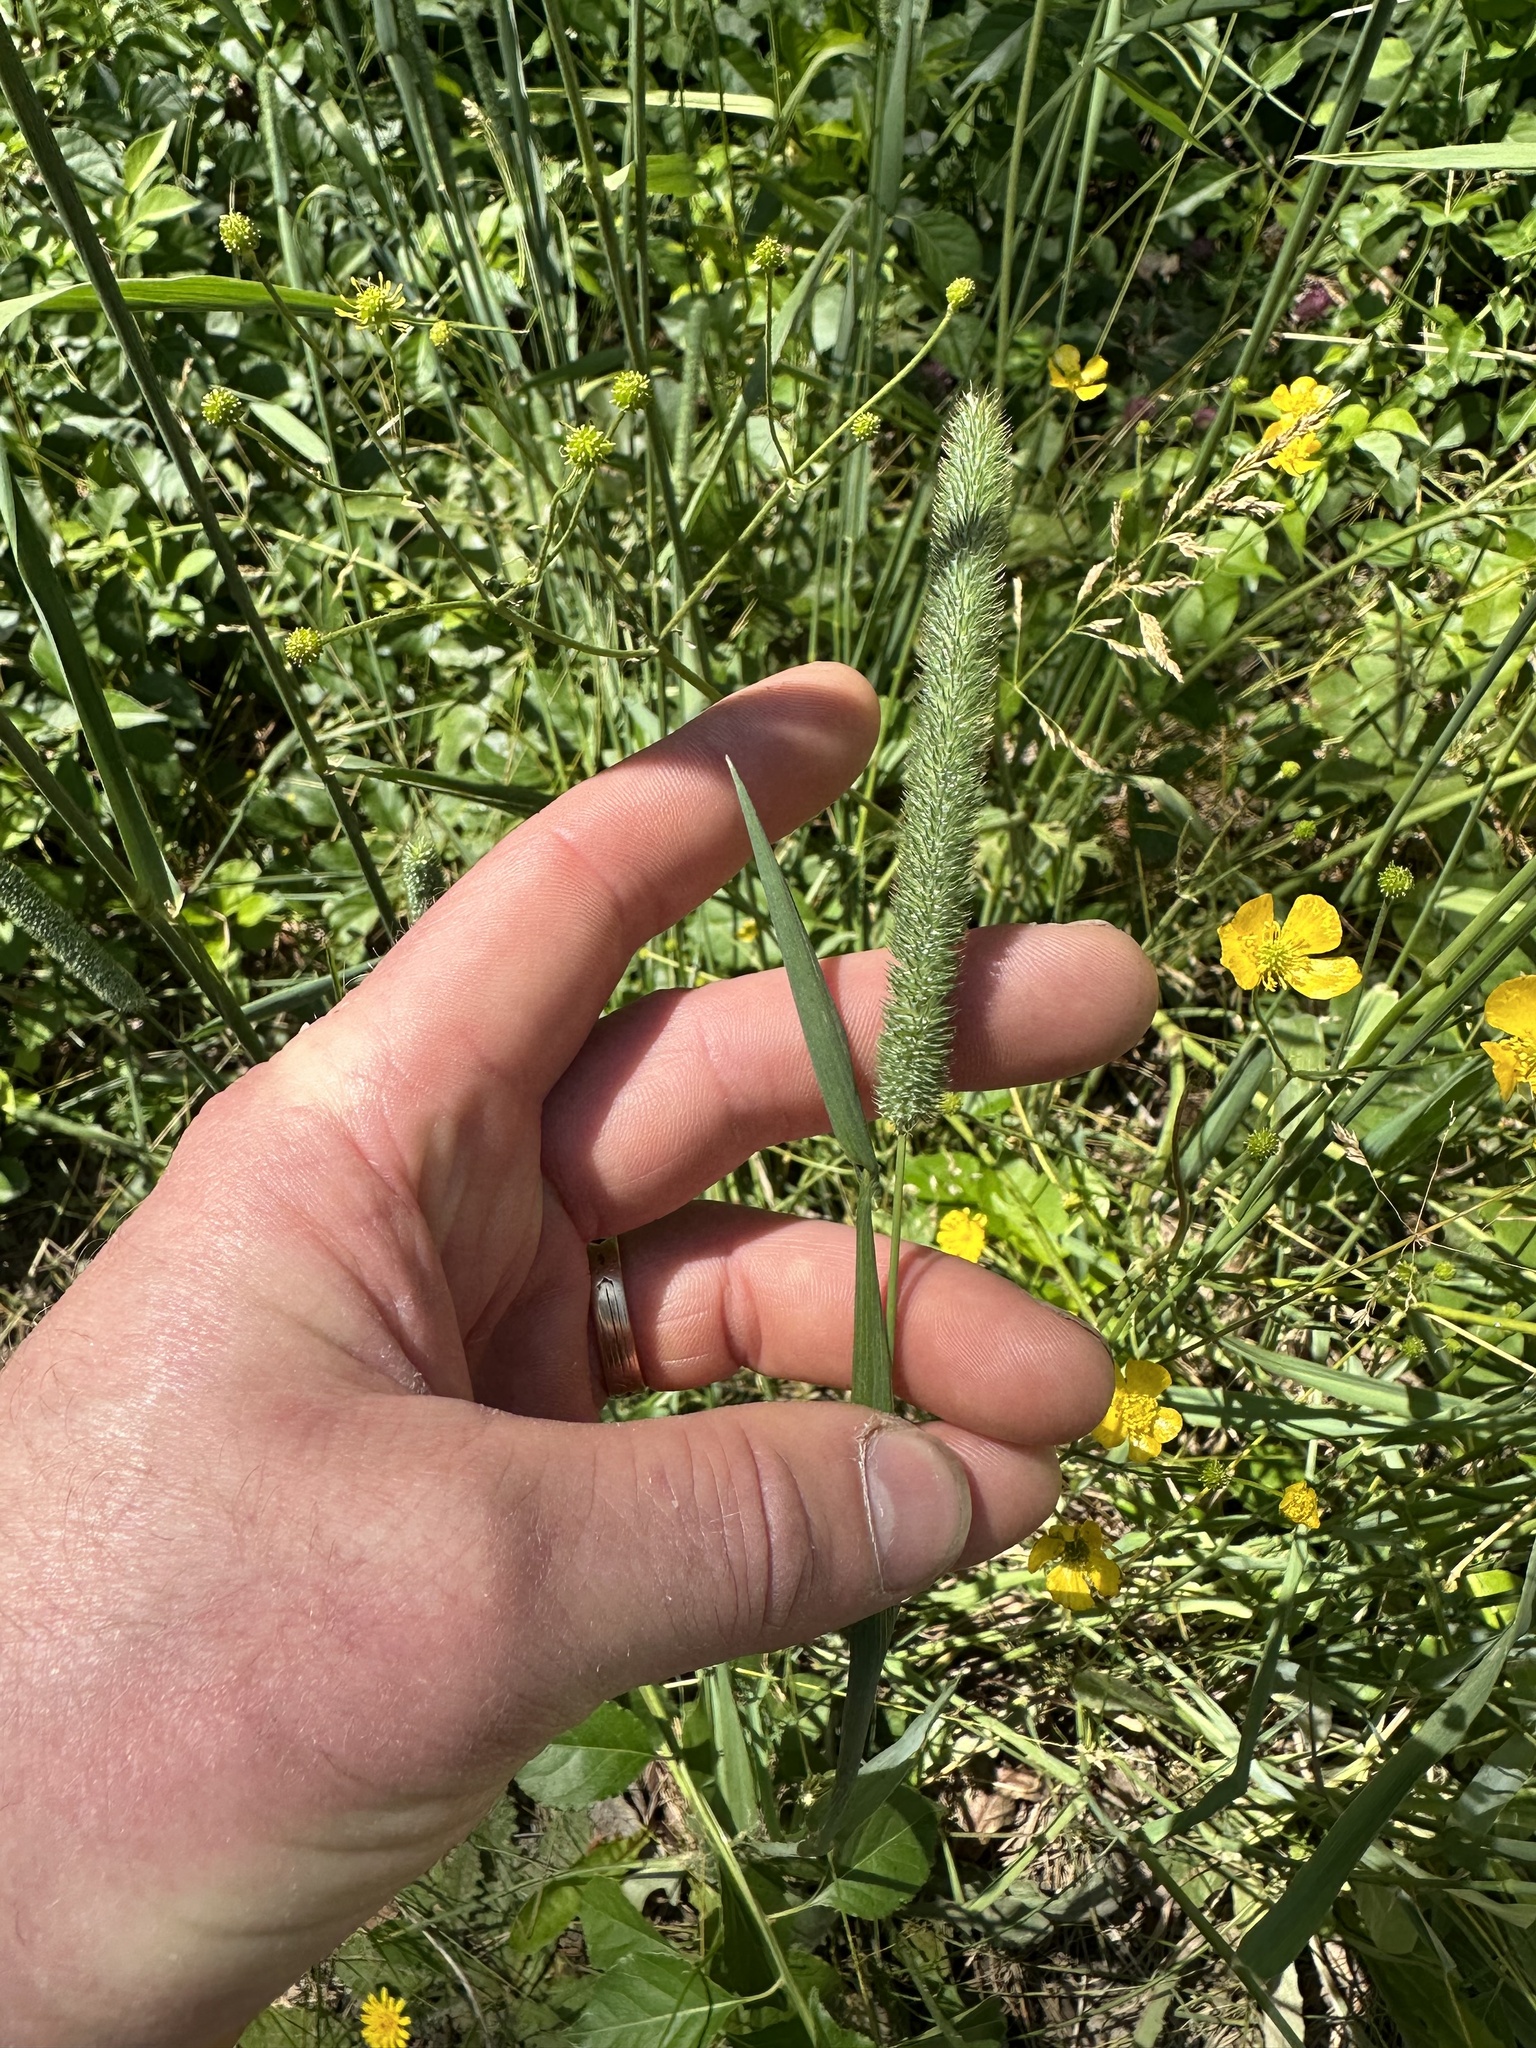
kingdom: Plantae
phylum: Tracheophyta
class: Liliopsida
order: Poales
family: Poaceae
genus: Phleum
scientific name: Phleum pratense
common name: Timothy grass
